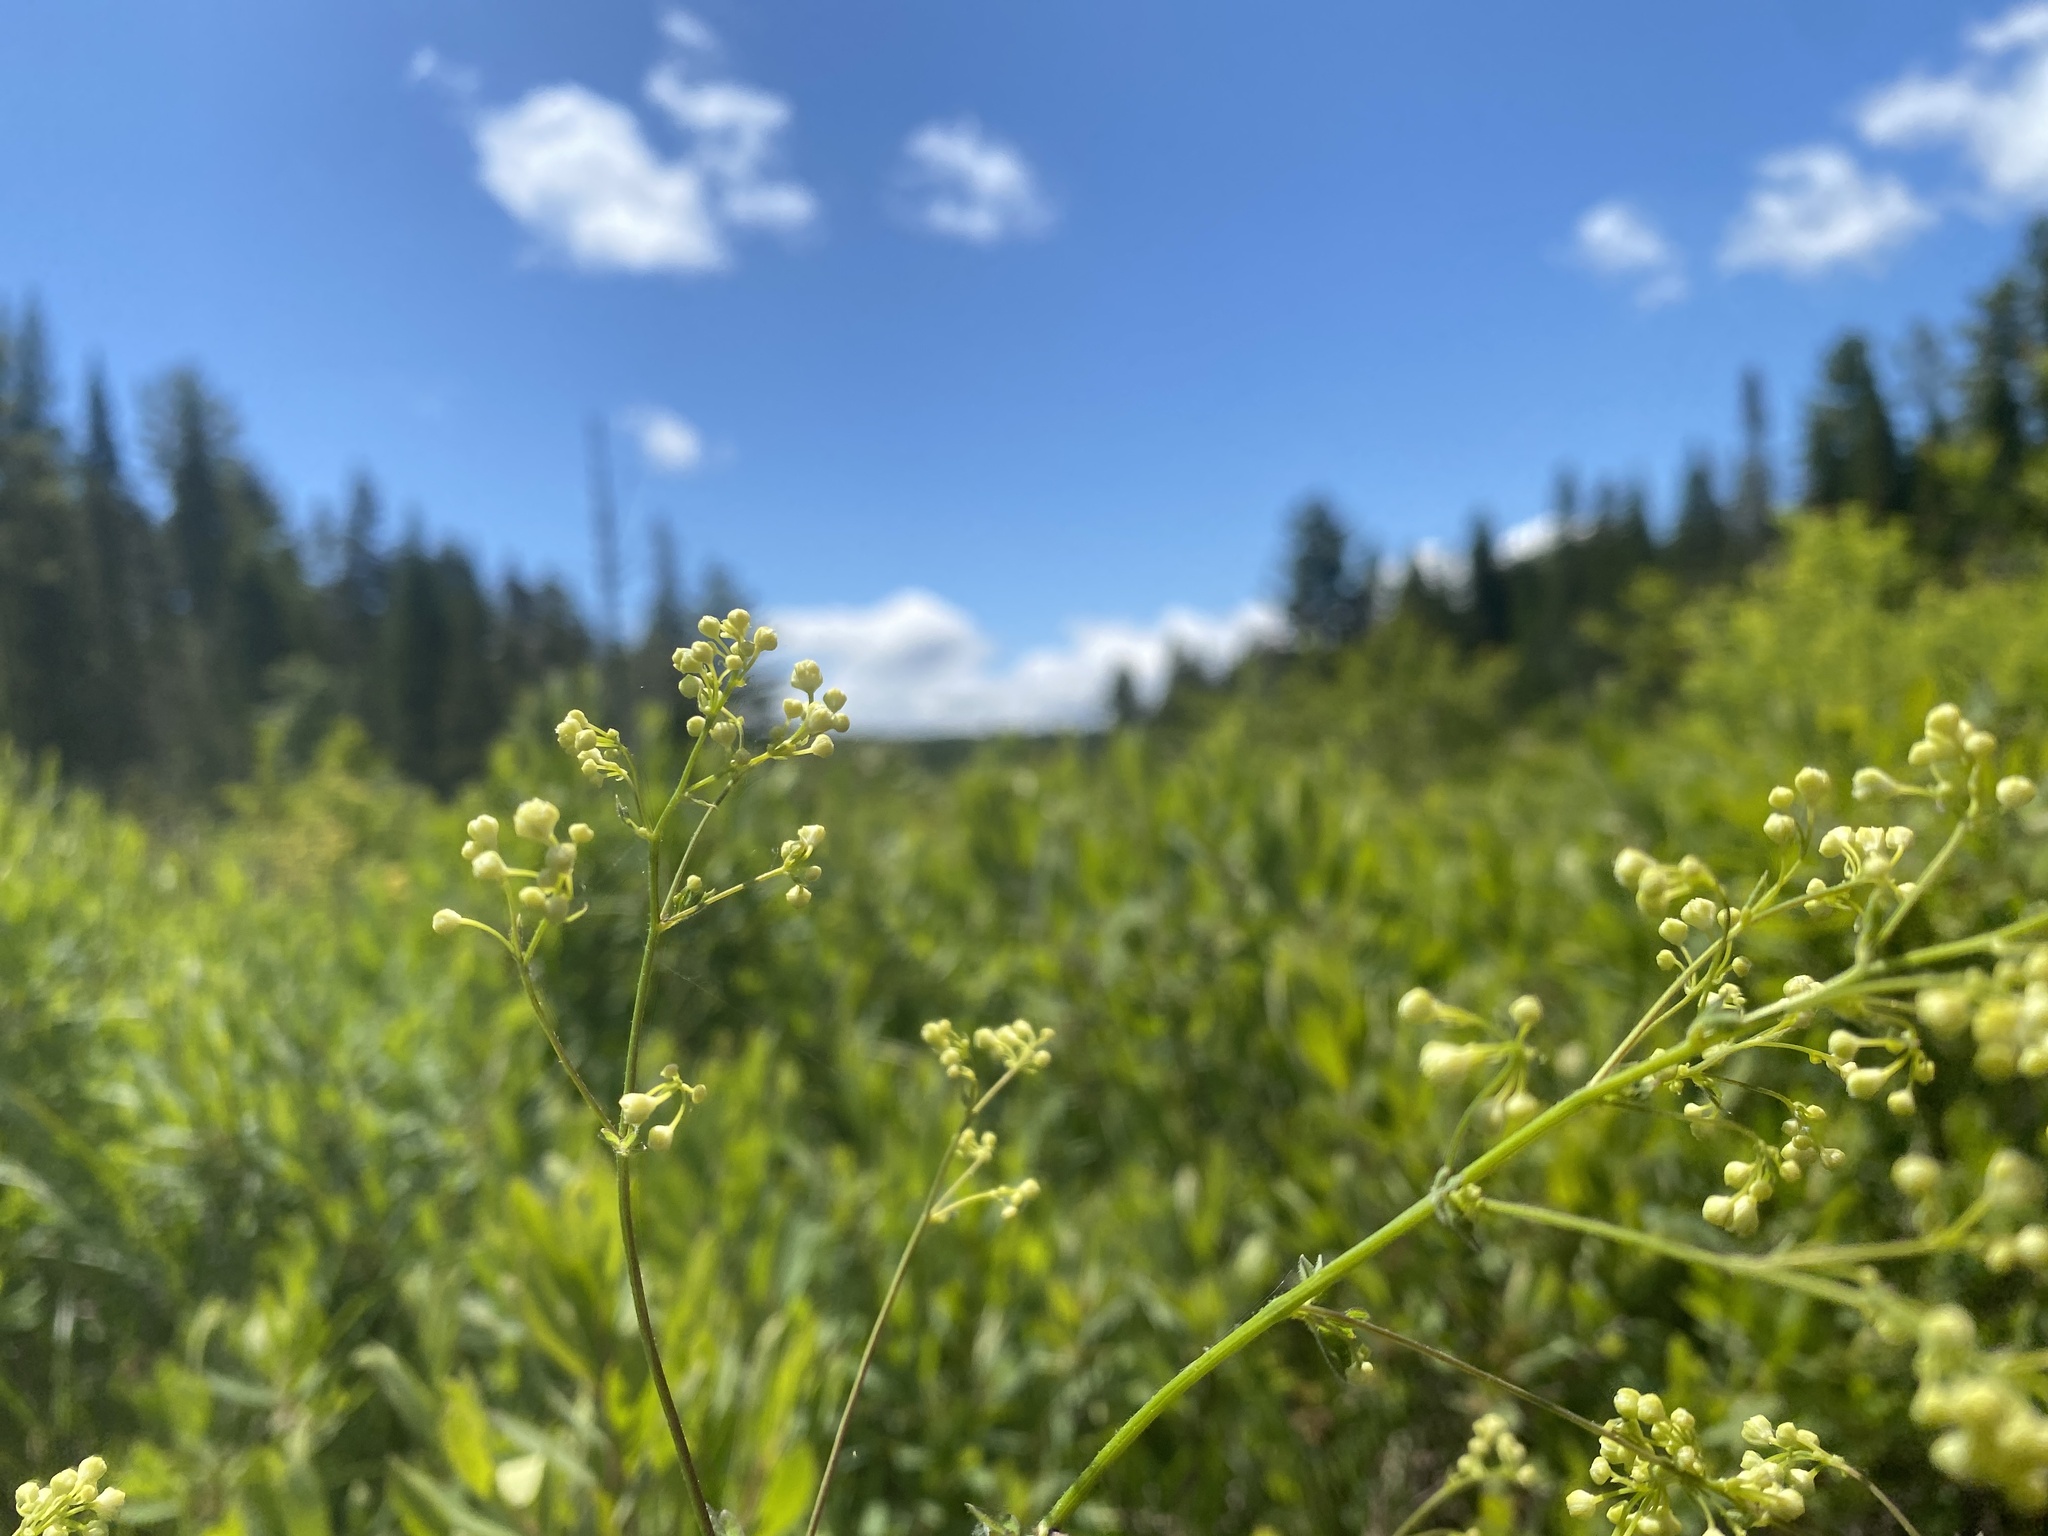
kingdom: Plantae
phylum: Tracheophyta
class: Magnoliopsida
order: Ranunculales
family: Ranunculaceae
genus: Thalictrum
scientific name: Thalictrum pubescens
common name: King-of-the-meadow
